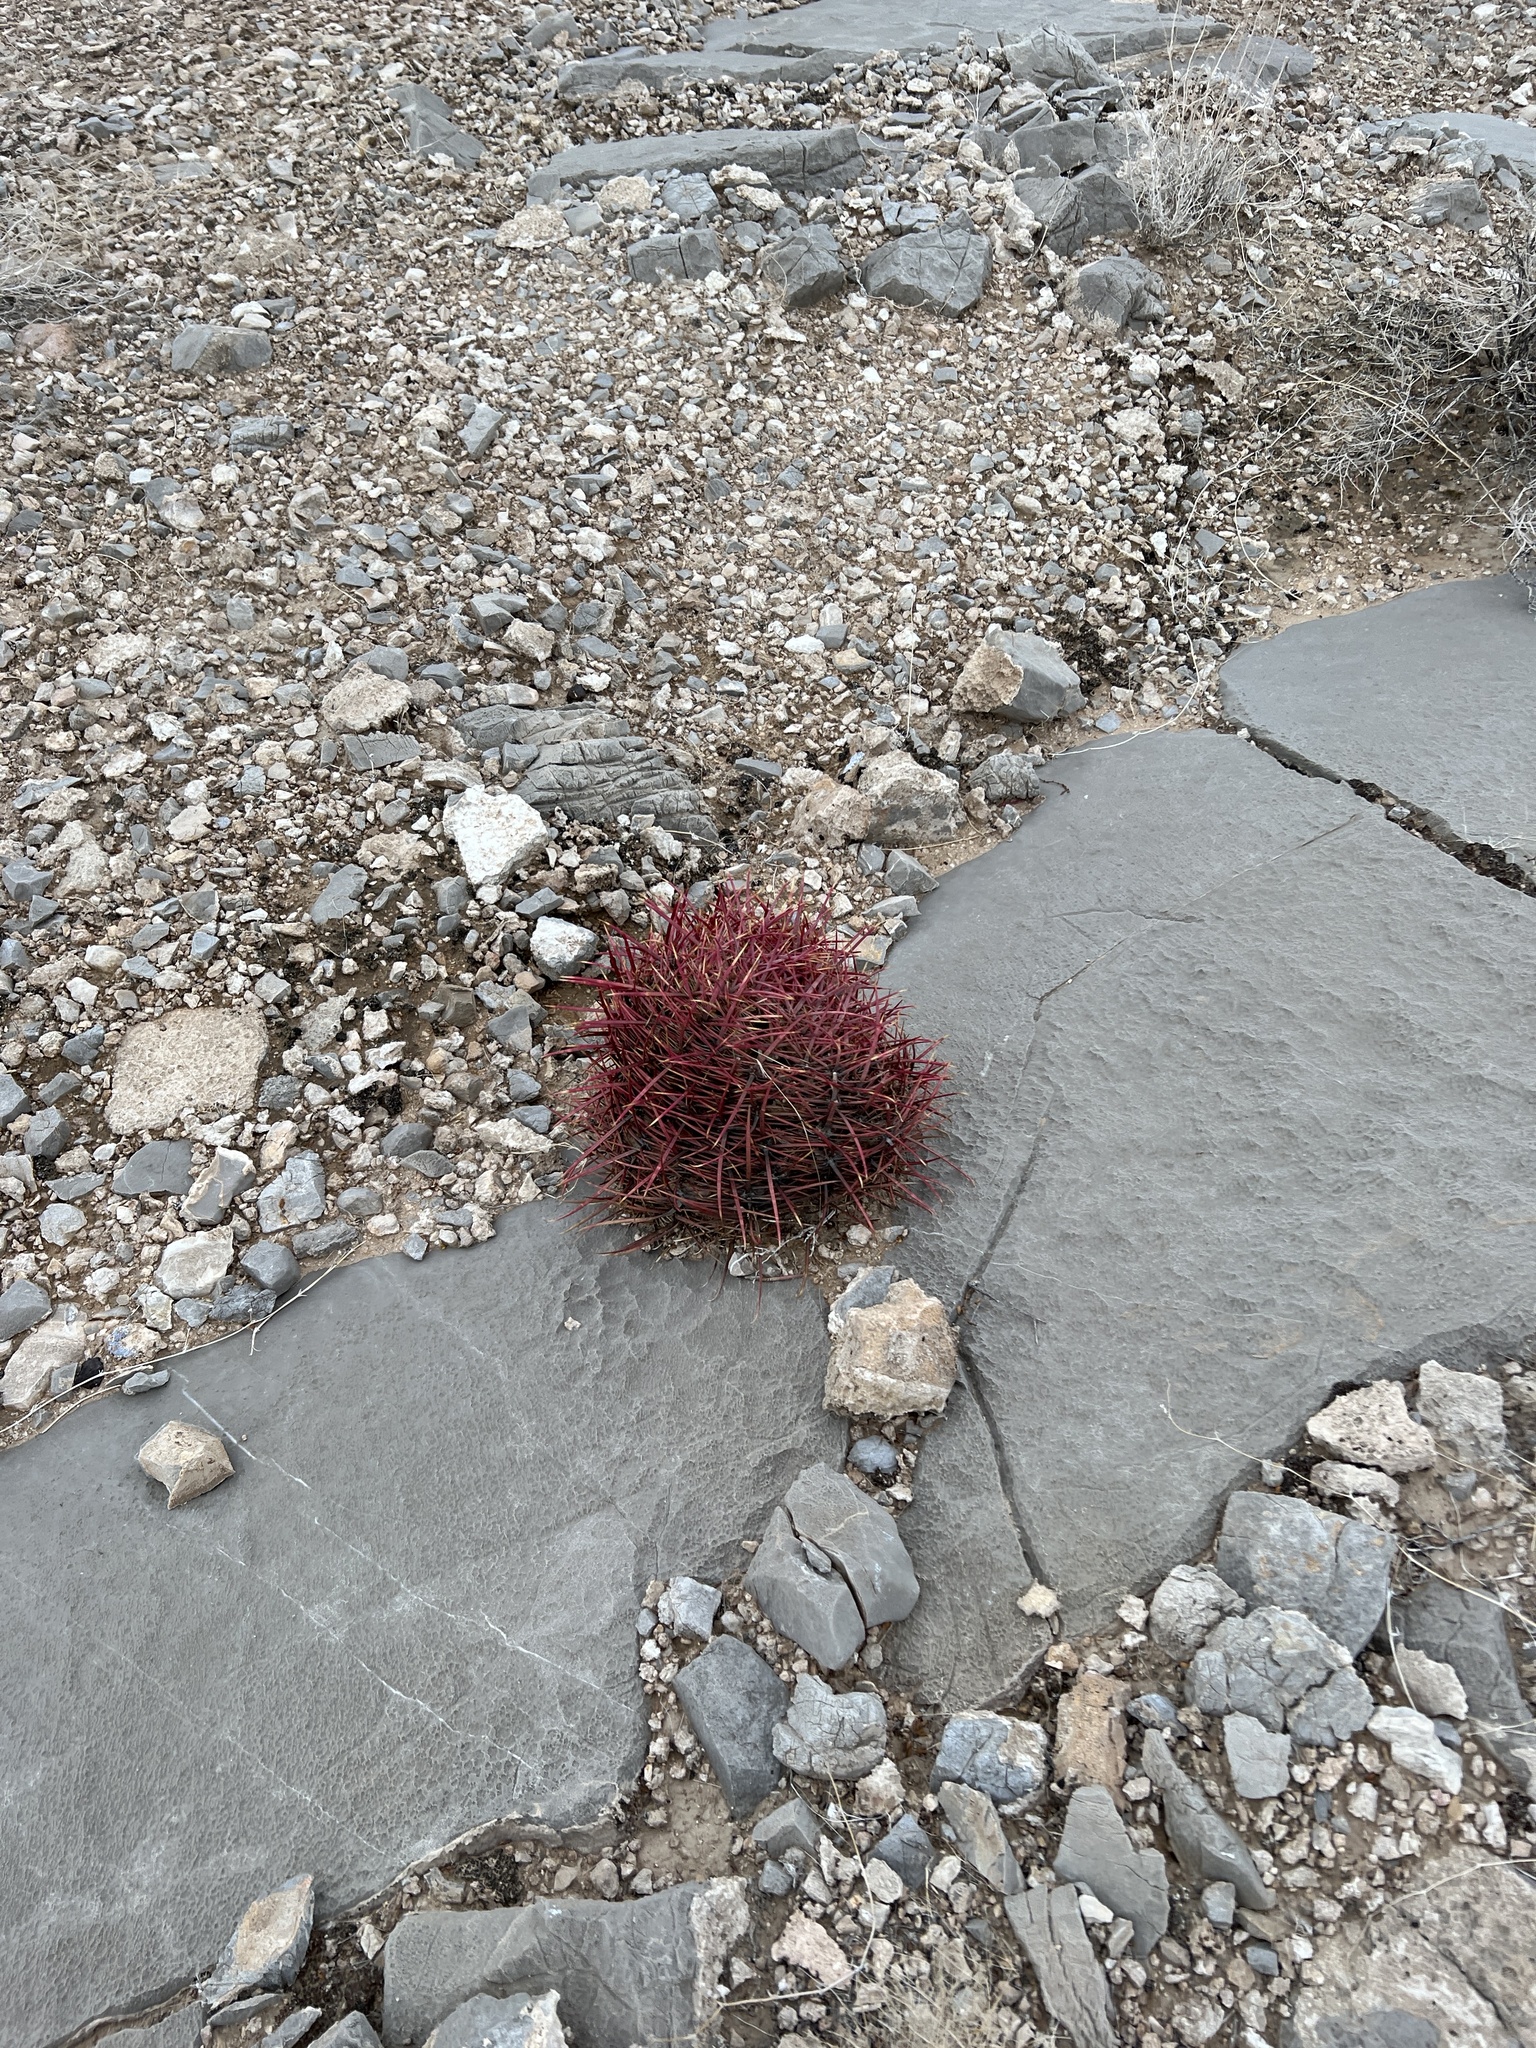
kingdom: Plantae
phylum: Tracheophyta
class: Magnoliopsida
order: Caryophyllales
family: Cactaceae
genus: Ferocactus
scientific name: Ferocactus cylindraceus
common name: California barrel cactus
